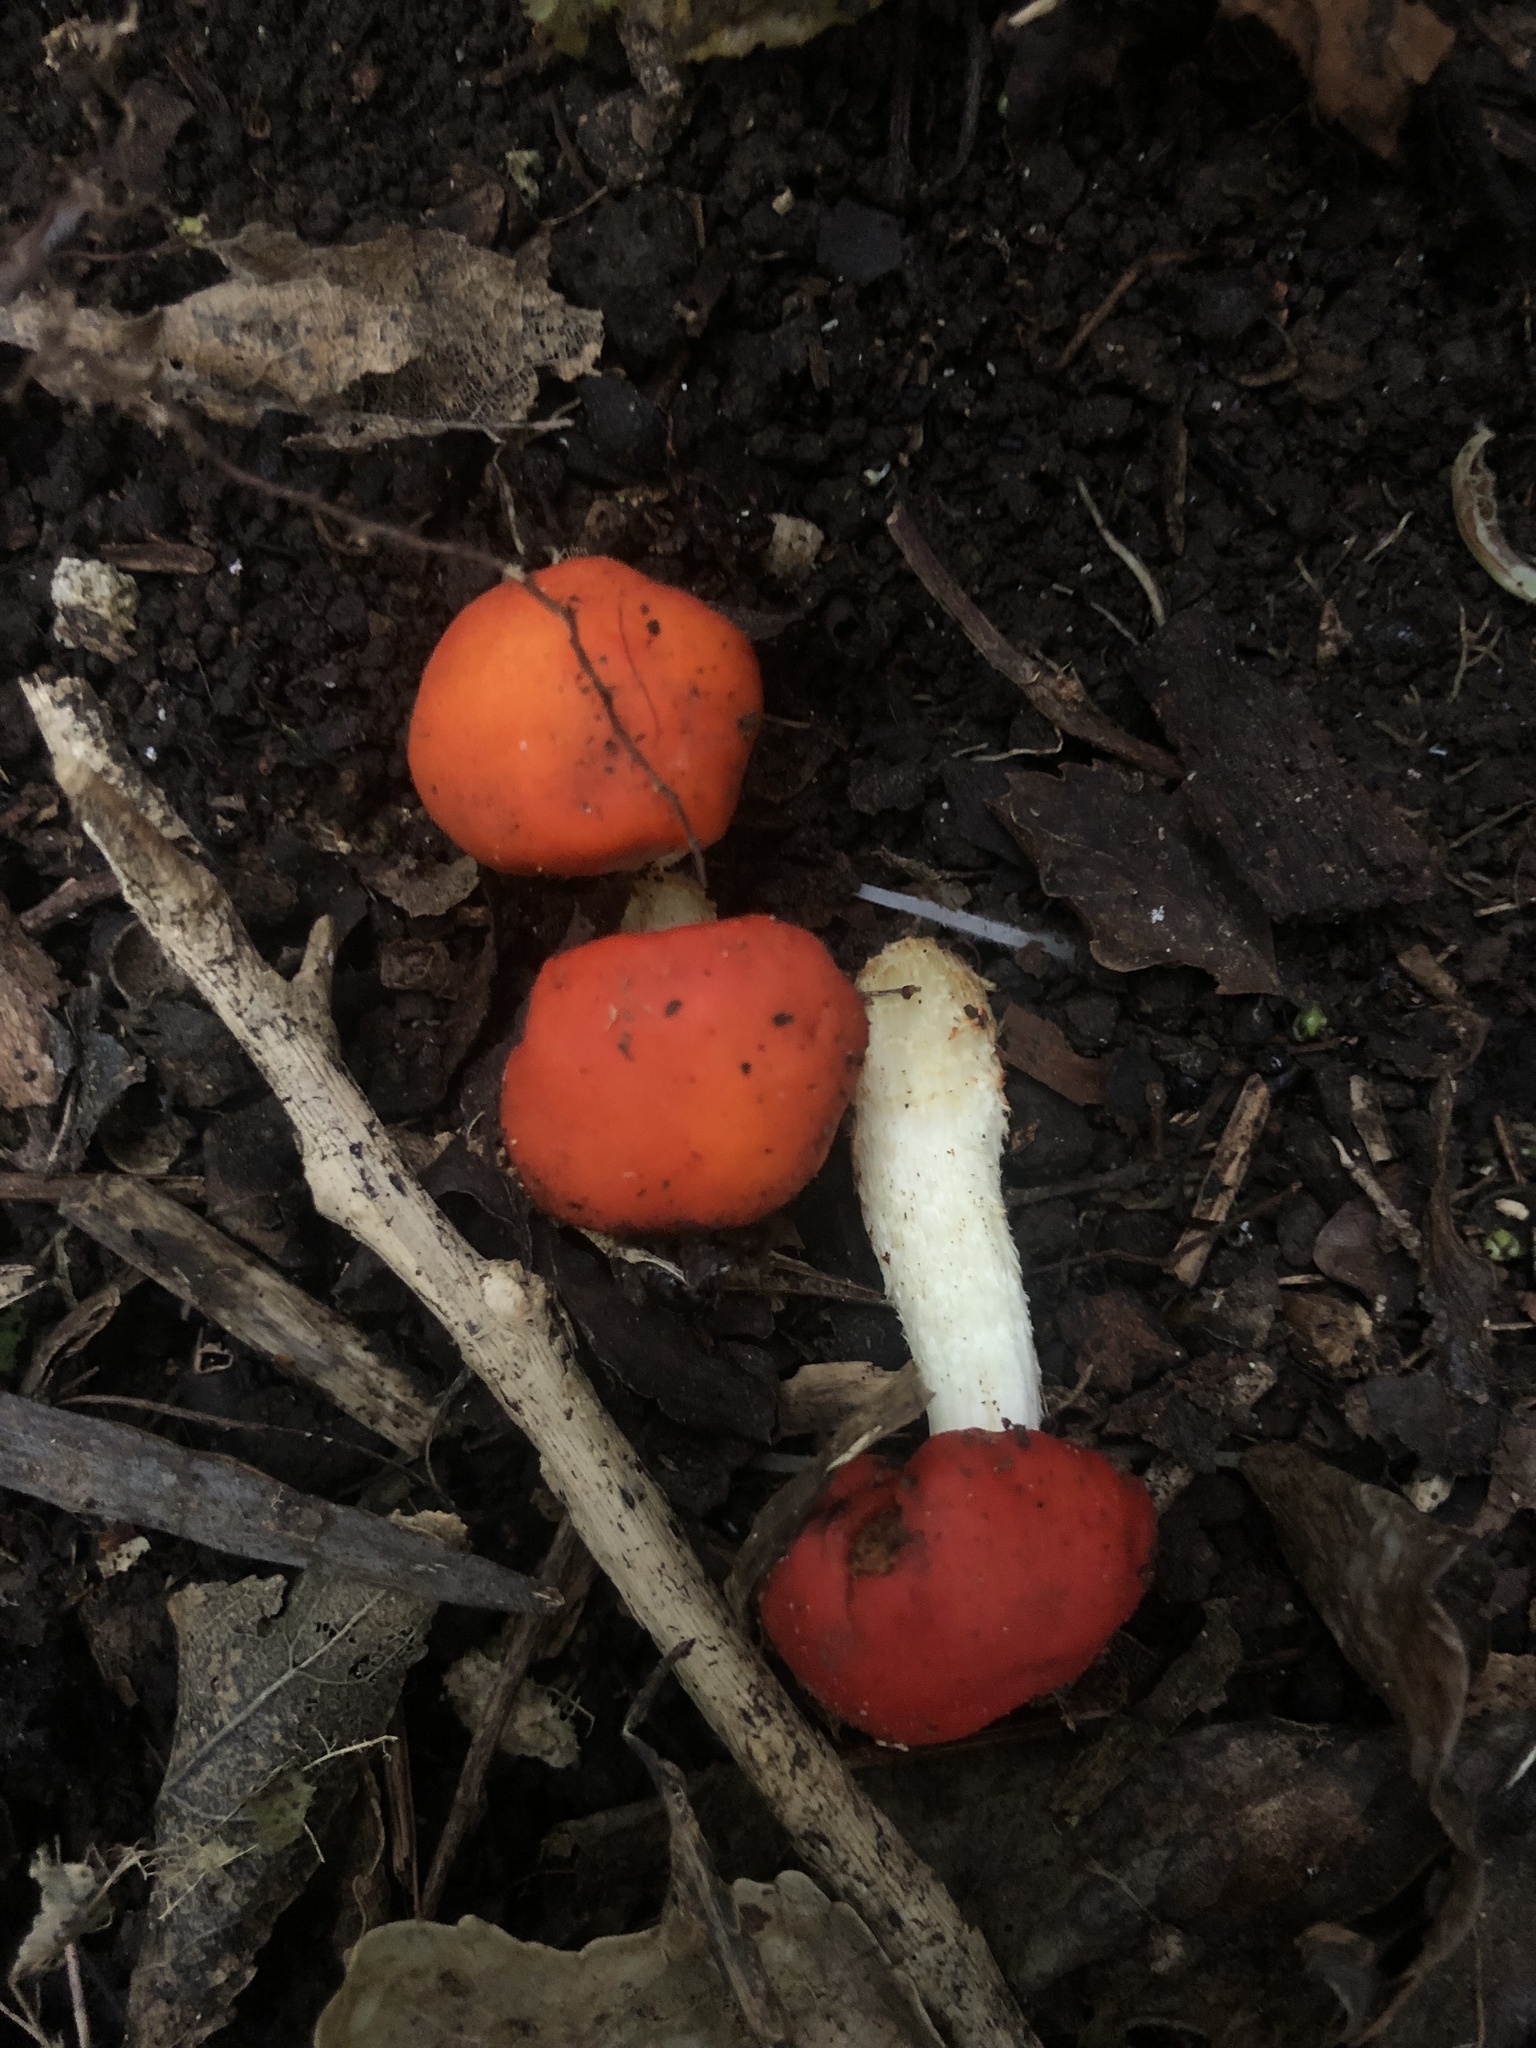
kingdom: Fungi
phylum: Basidiomycota
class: Agaricomycetes
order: Agaricales
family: Strophariaceae
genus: Leratiomyces
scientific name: Leratiomyces erythrocephalus
